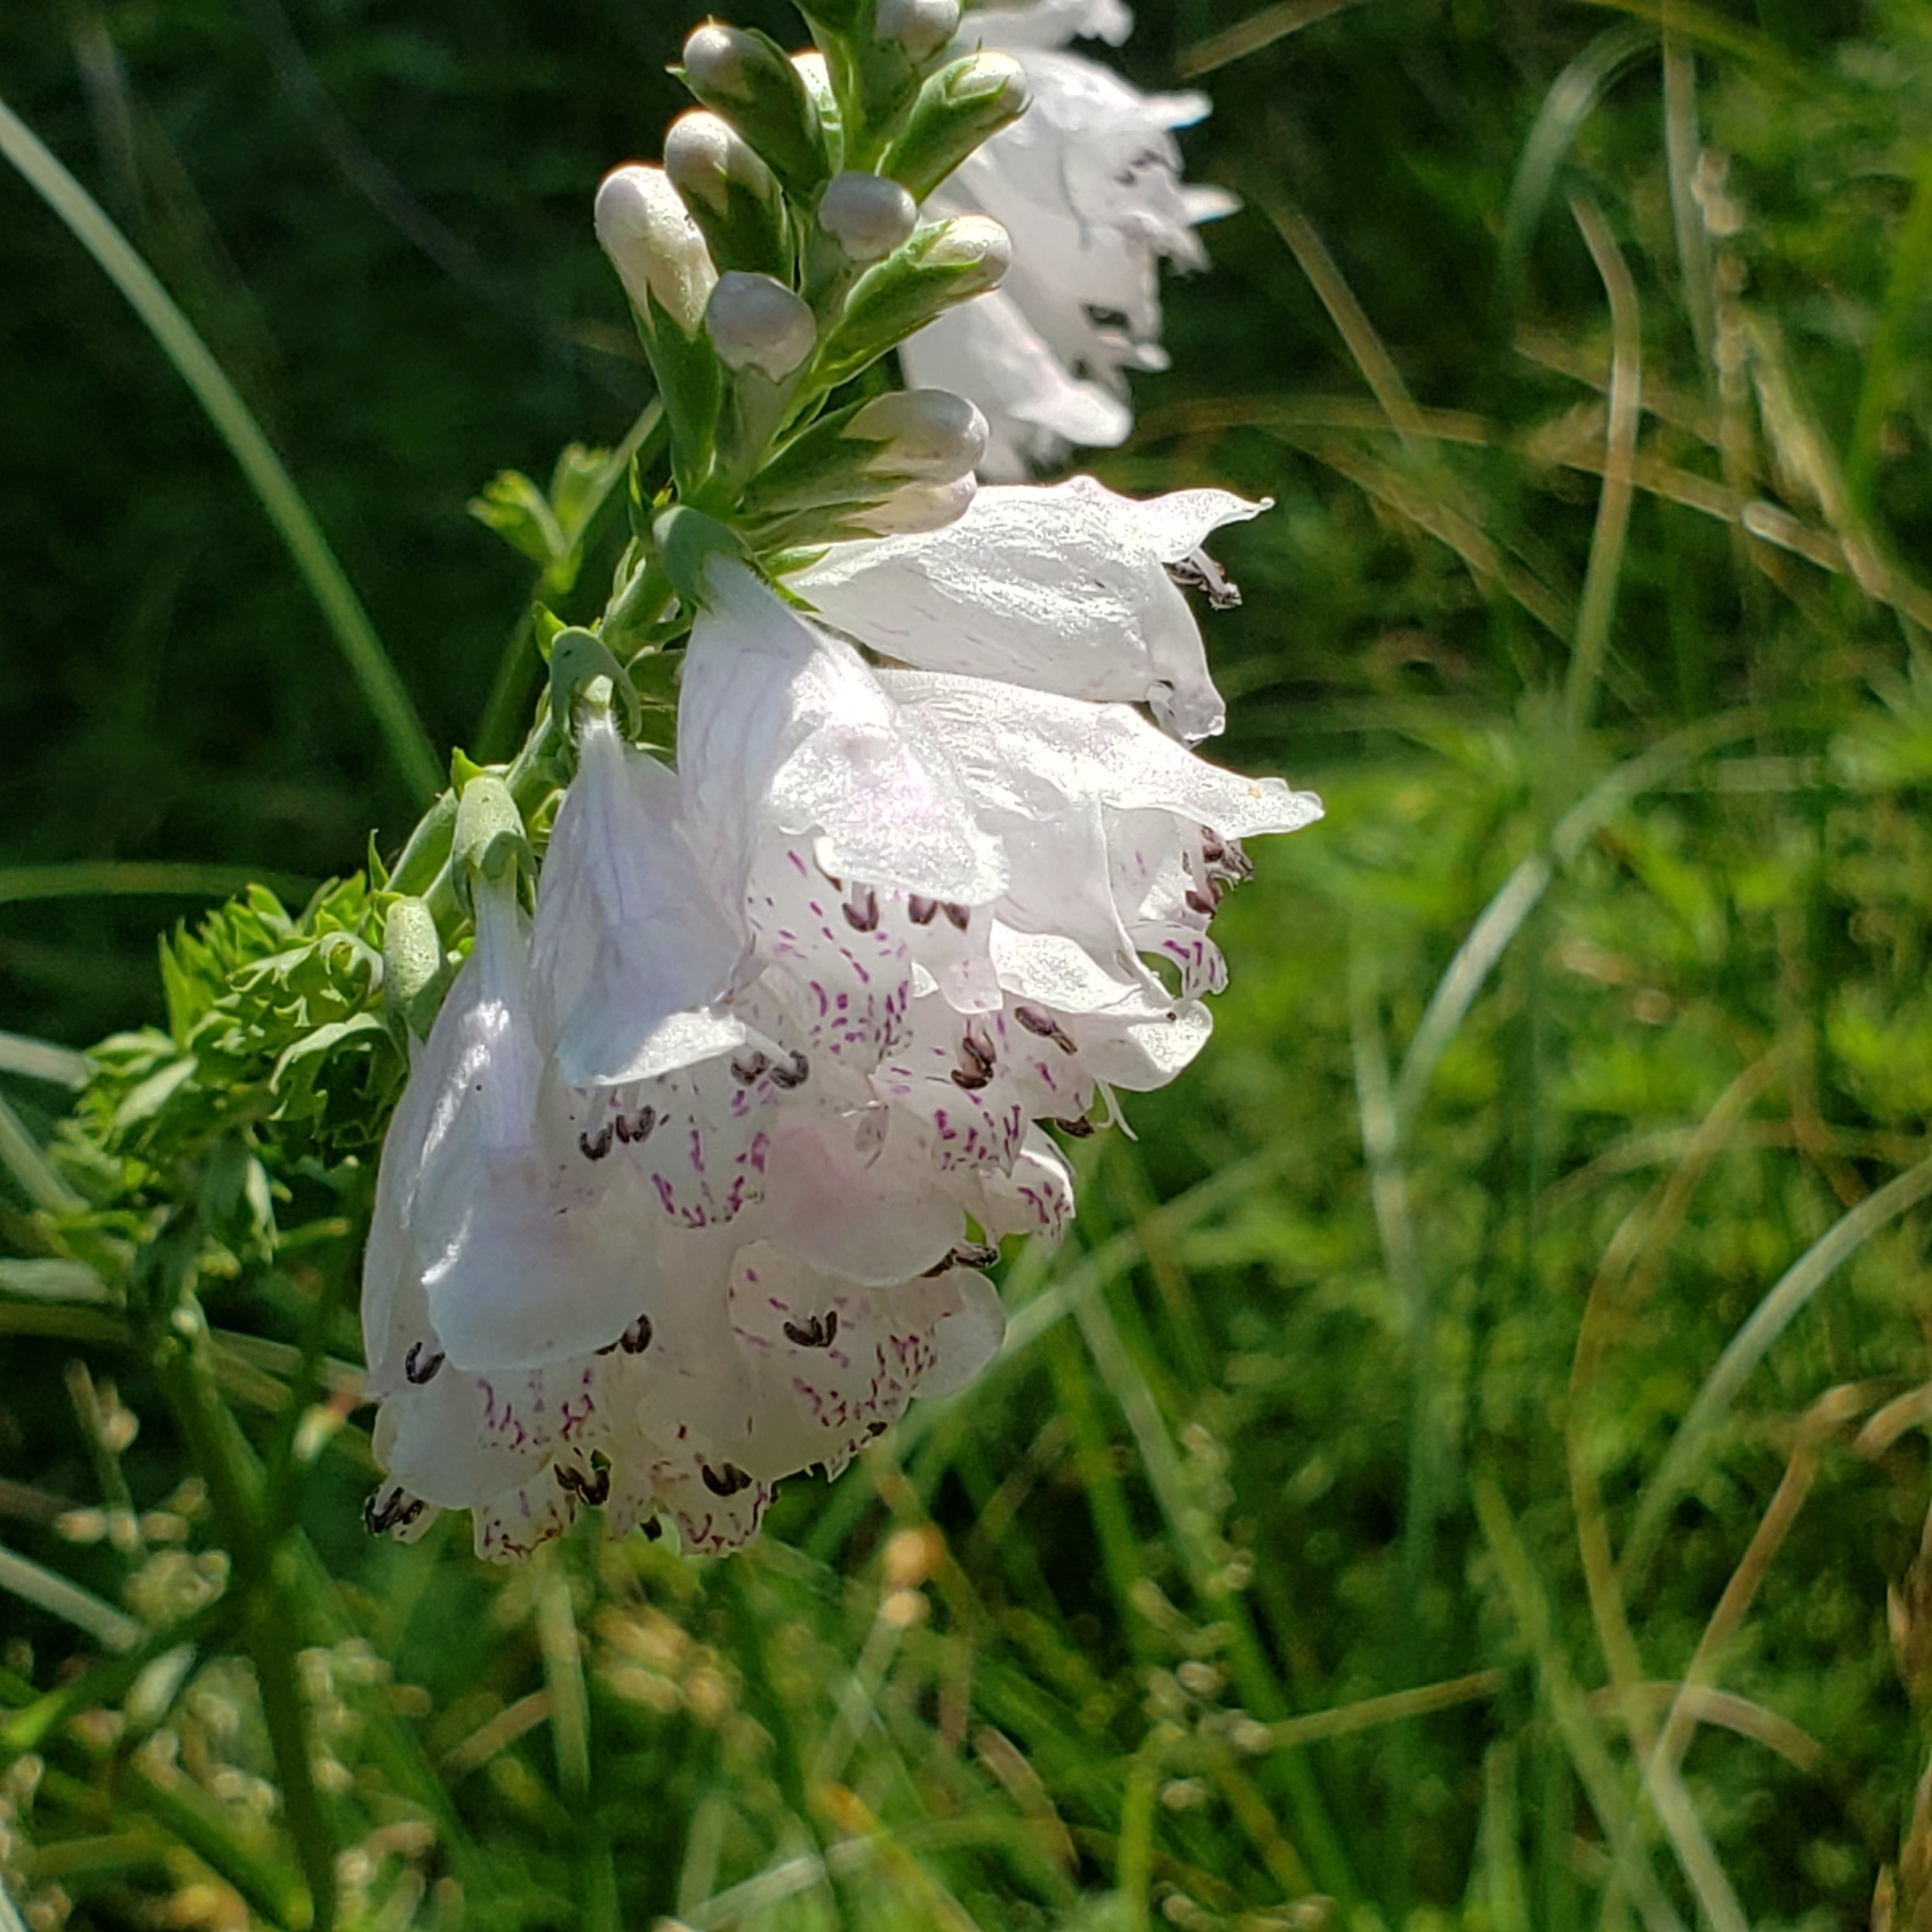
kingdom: Plantae
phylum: Tracheophyta
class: Magnoliopsida
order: Lamiales
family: Lamiaceae
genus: Physostegia
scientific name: Physostegia angustifolia
